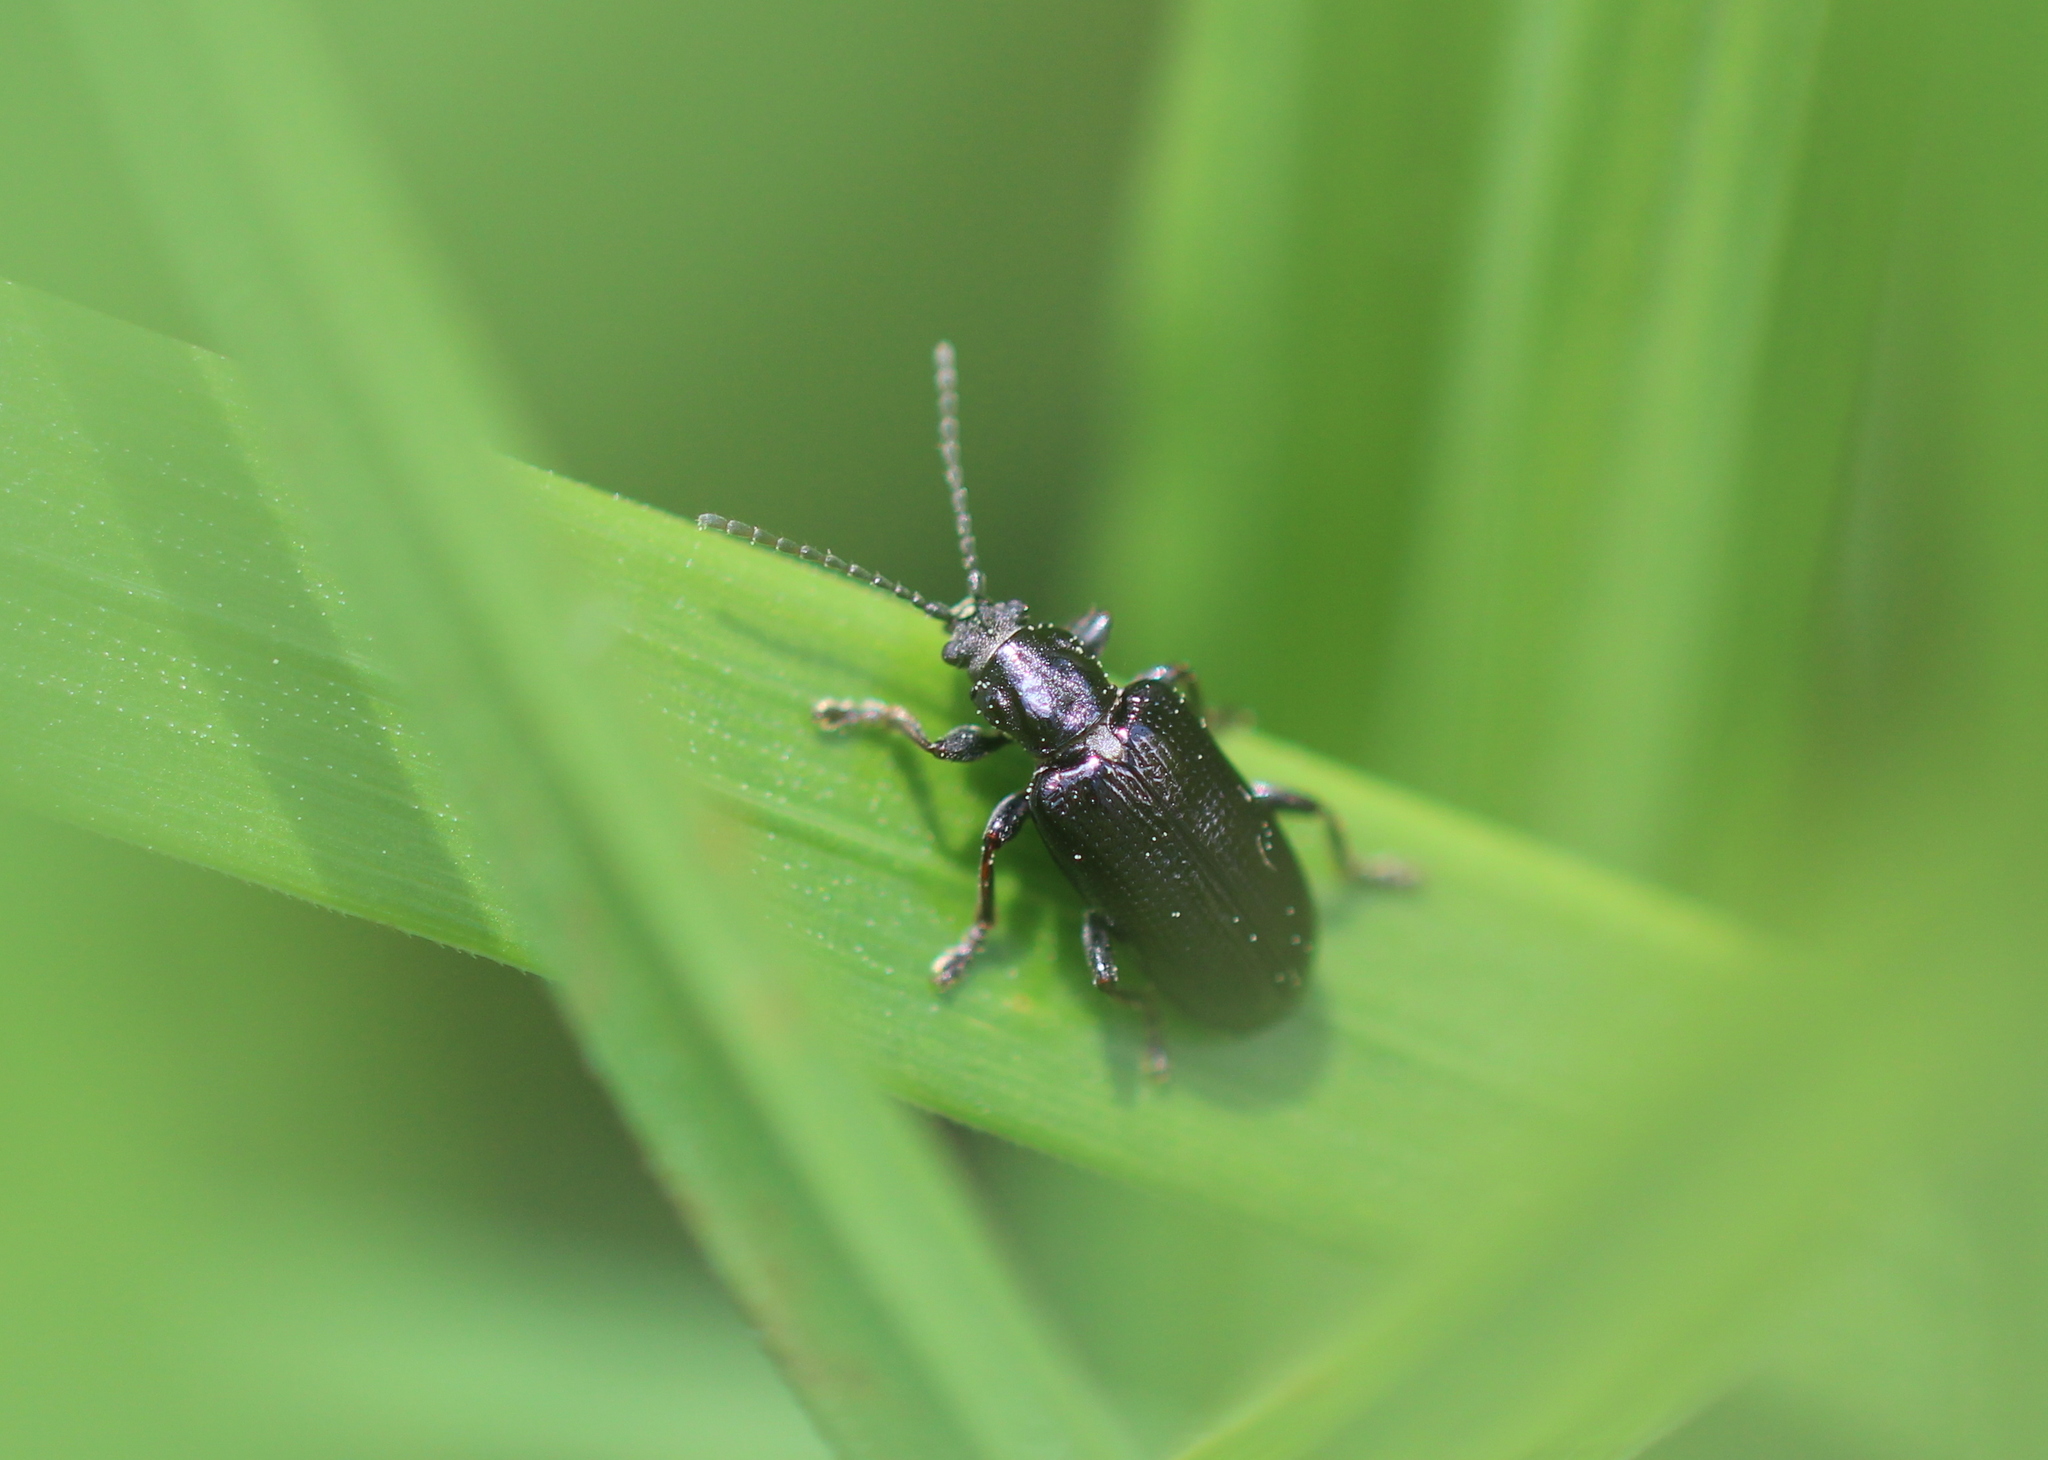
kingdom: Animalia
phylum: Arthropoda
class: Insecta
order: Coleoptera
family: Chrysomelidae
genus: Plateumaris
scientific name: Plateumaris metallica
